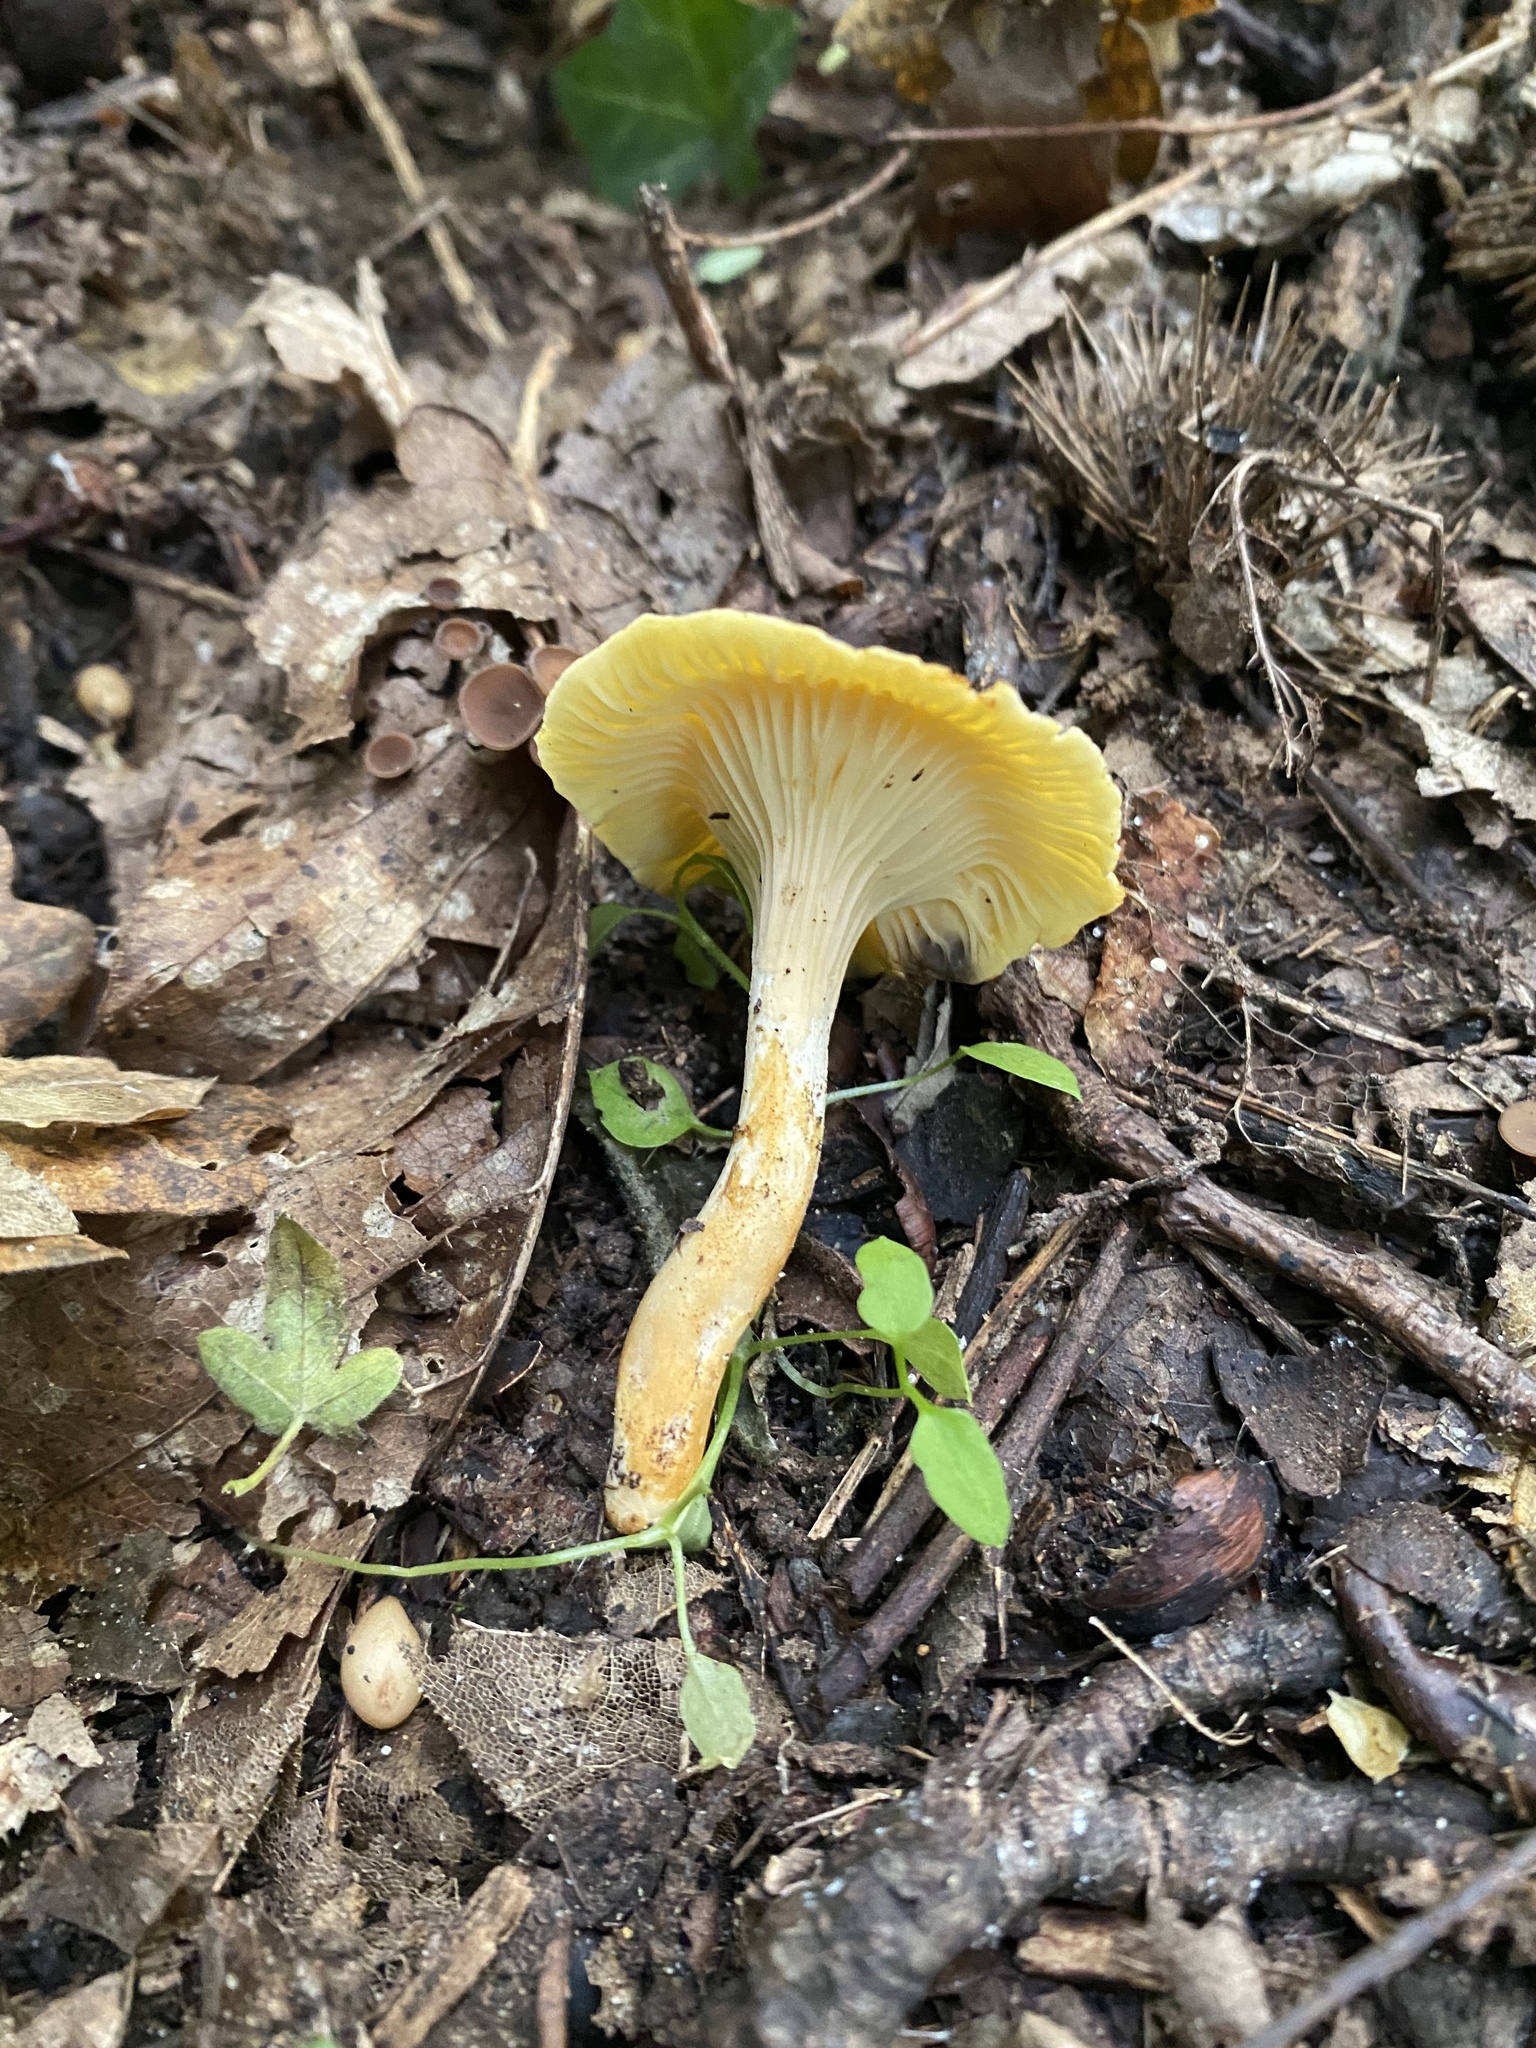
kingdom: Fungi
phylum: Basidiomycota
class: Agaricomycetes
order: Cantharellales
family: Hydnaceae
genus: Cantharellus
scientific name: Cantharellus cibarius
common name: Chanterelle
